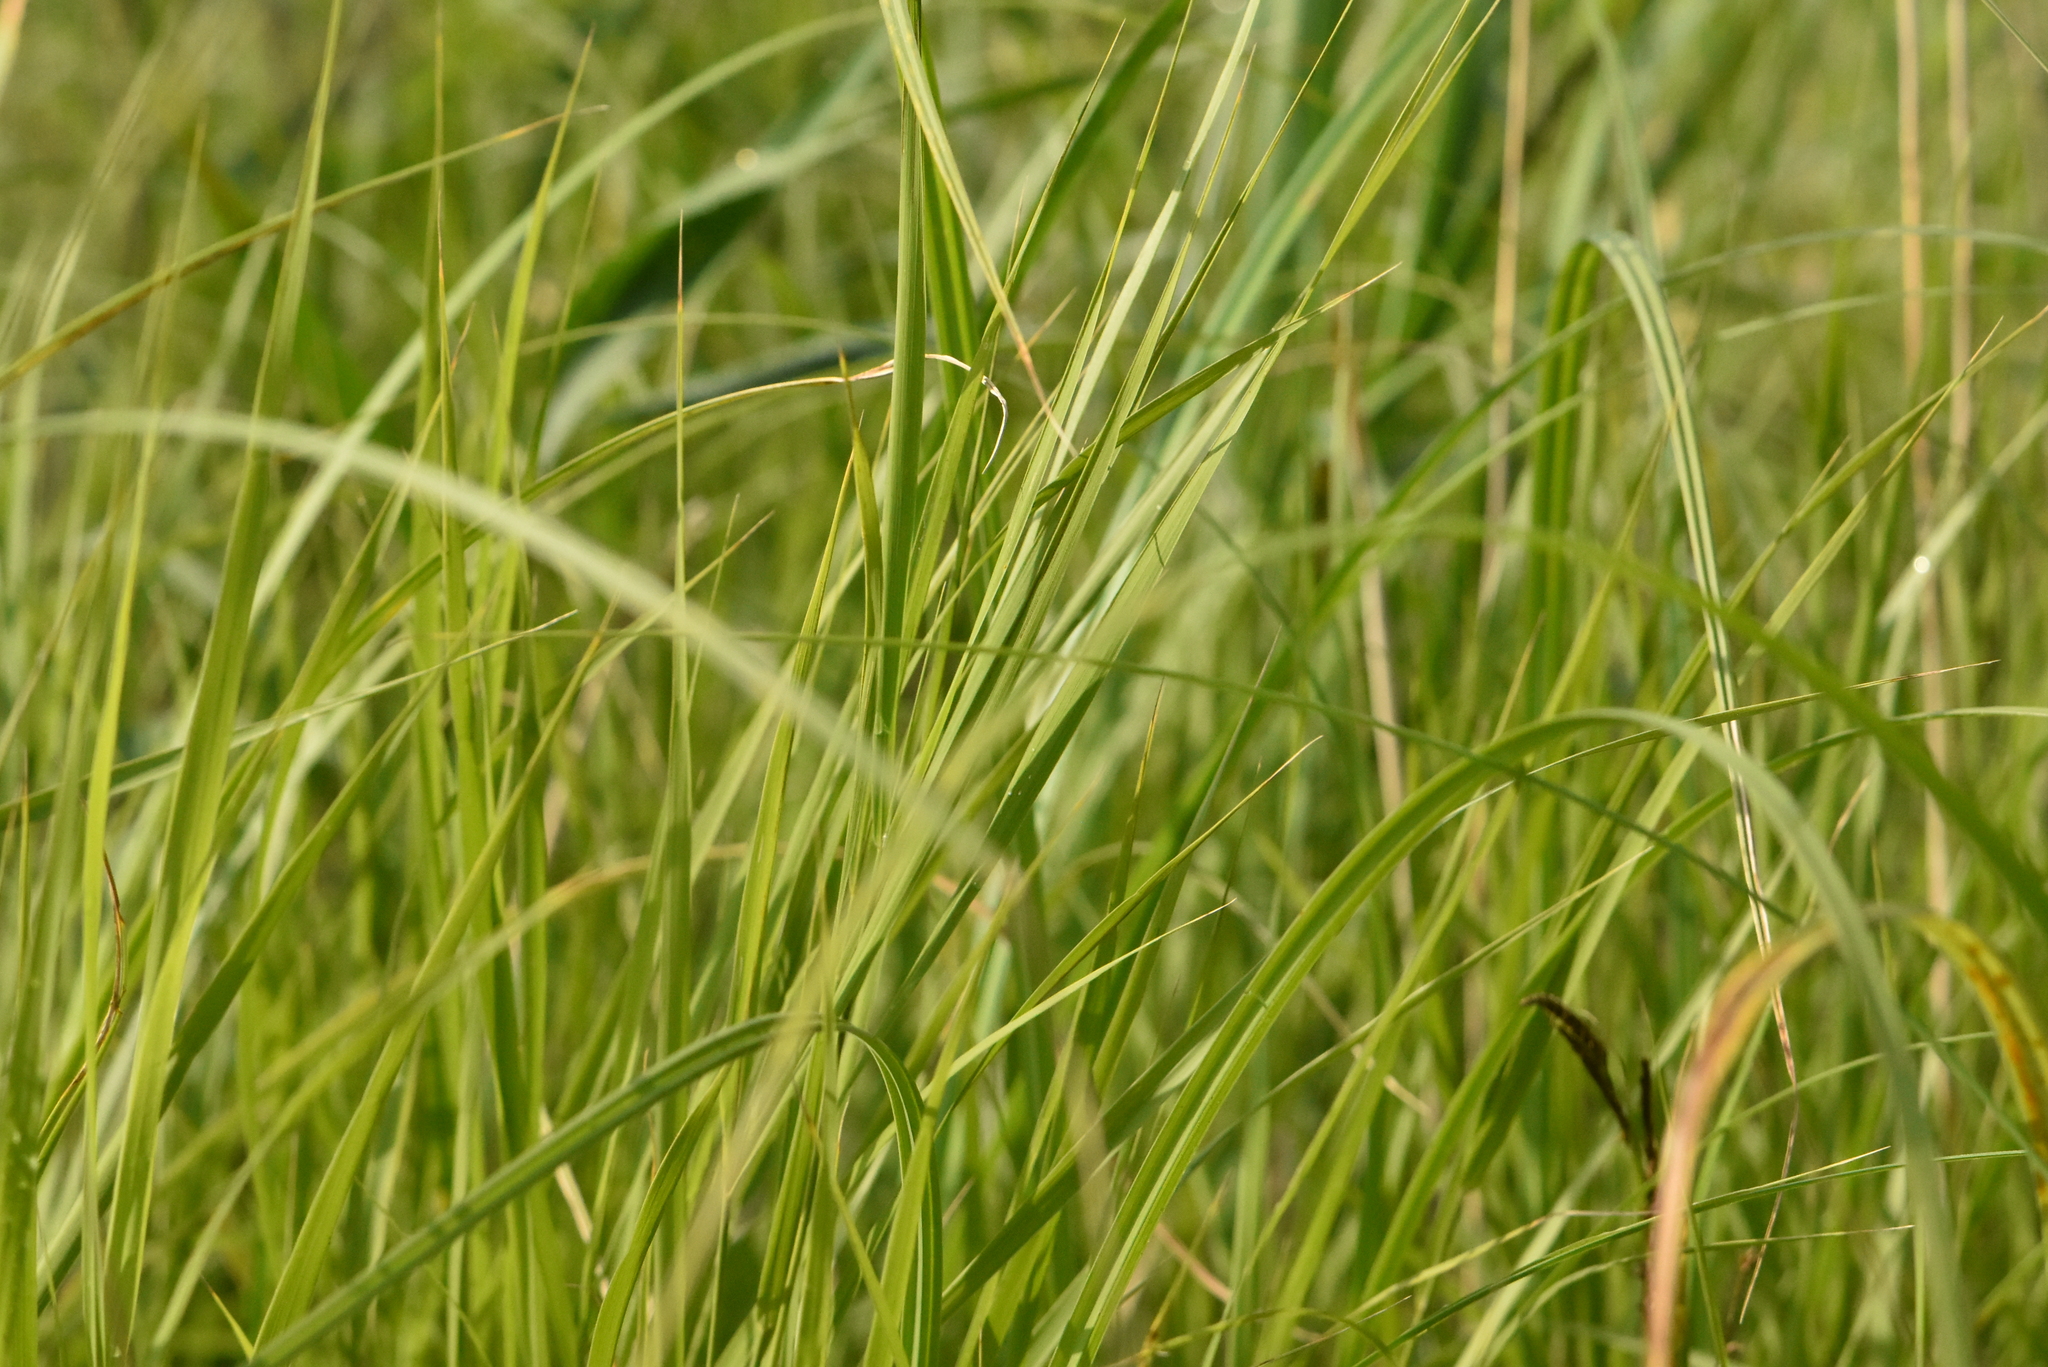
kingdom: Plantae
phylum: Tracheophyta
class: Liliopsida
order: Poales
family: Cyperaceae
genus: Carex
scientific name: Carex pseudocyperus
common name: Cyperus sedge
